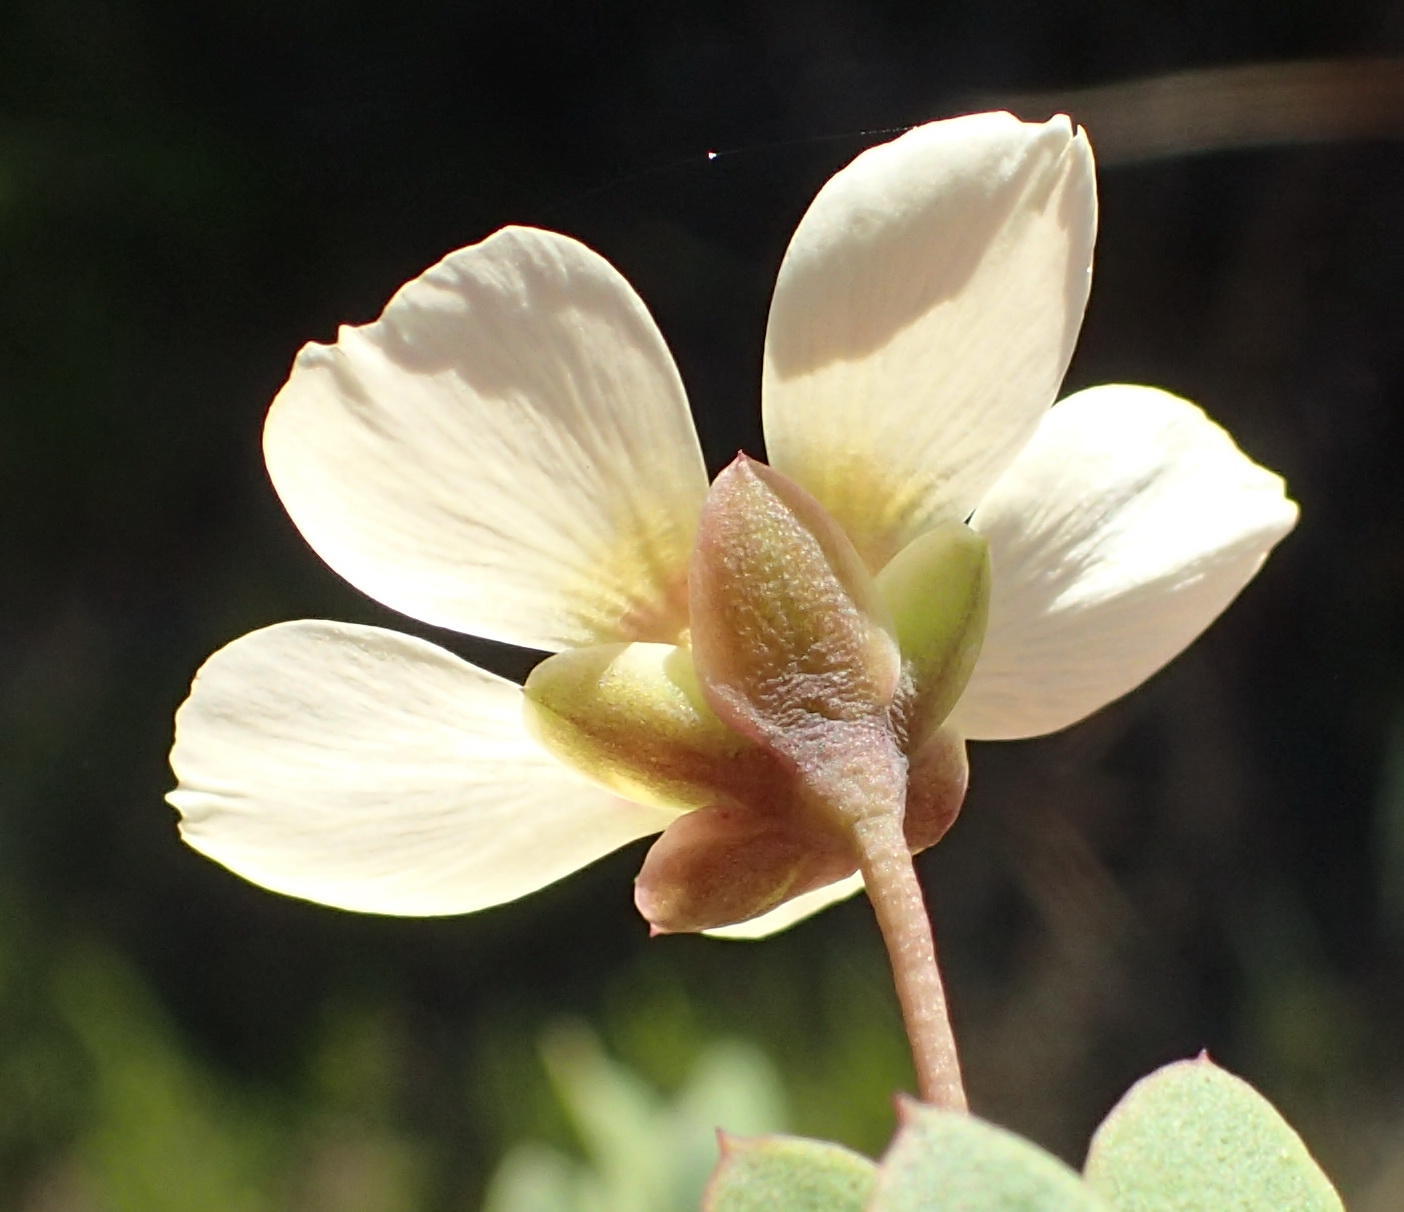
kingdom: Plantae
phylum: Tracheophyta
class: Magnoliopsida
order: Zygophyllales
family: Zygophyllaceae
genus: Roepera
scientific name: Roepera maritima
